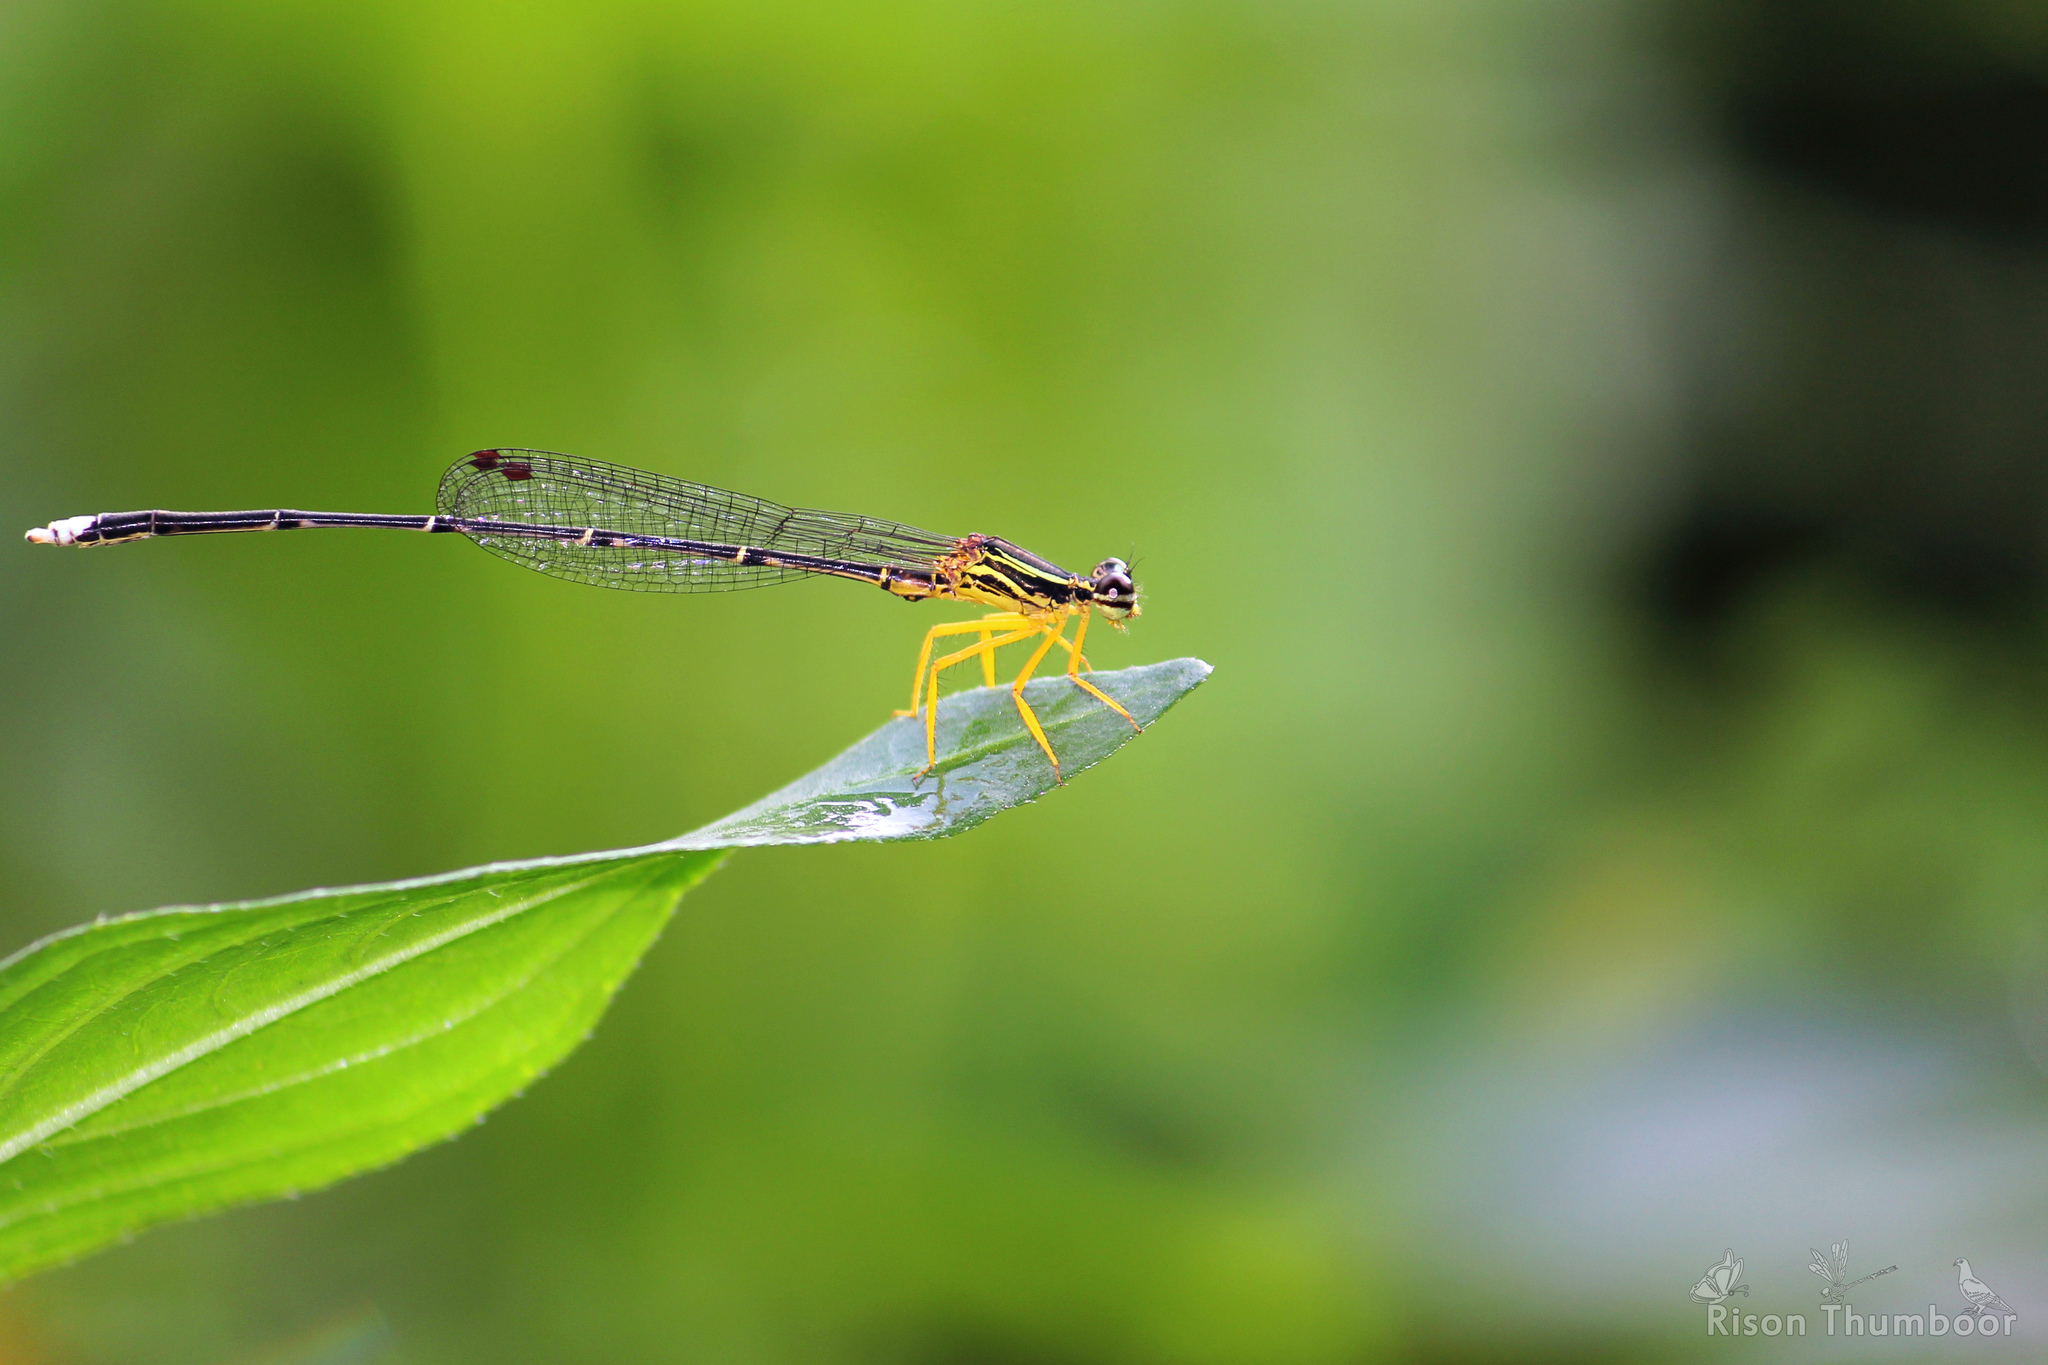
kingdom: Animalia
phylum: Arthropoda
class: Insecta
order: Odonata
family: Platycnemididae
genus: Copera
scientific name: Copera marginipes
